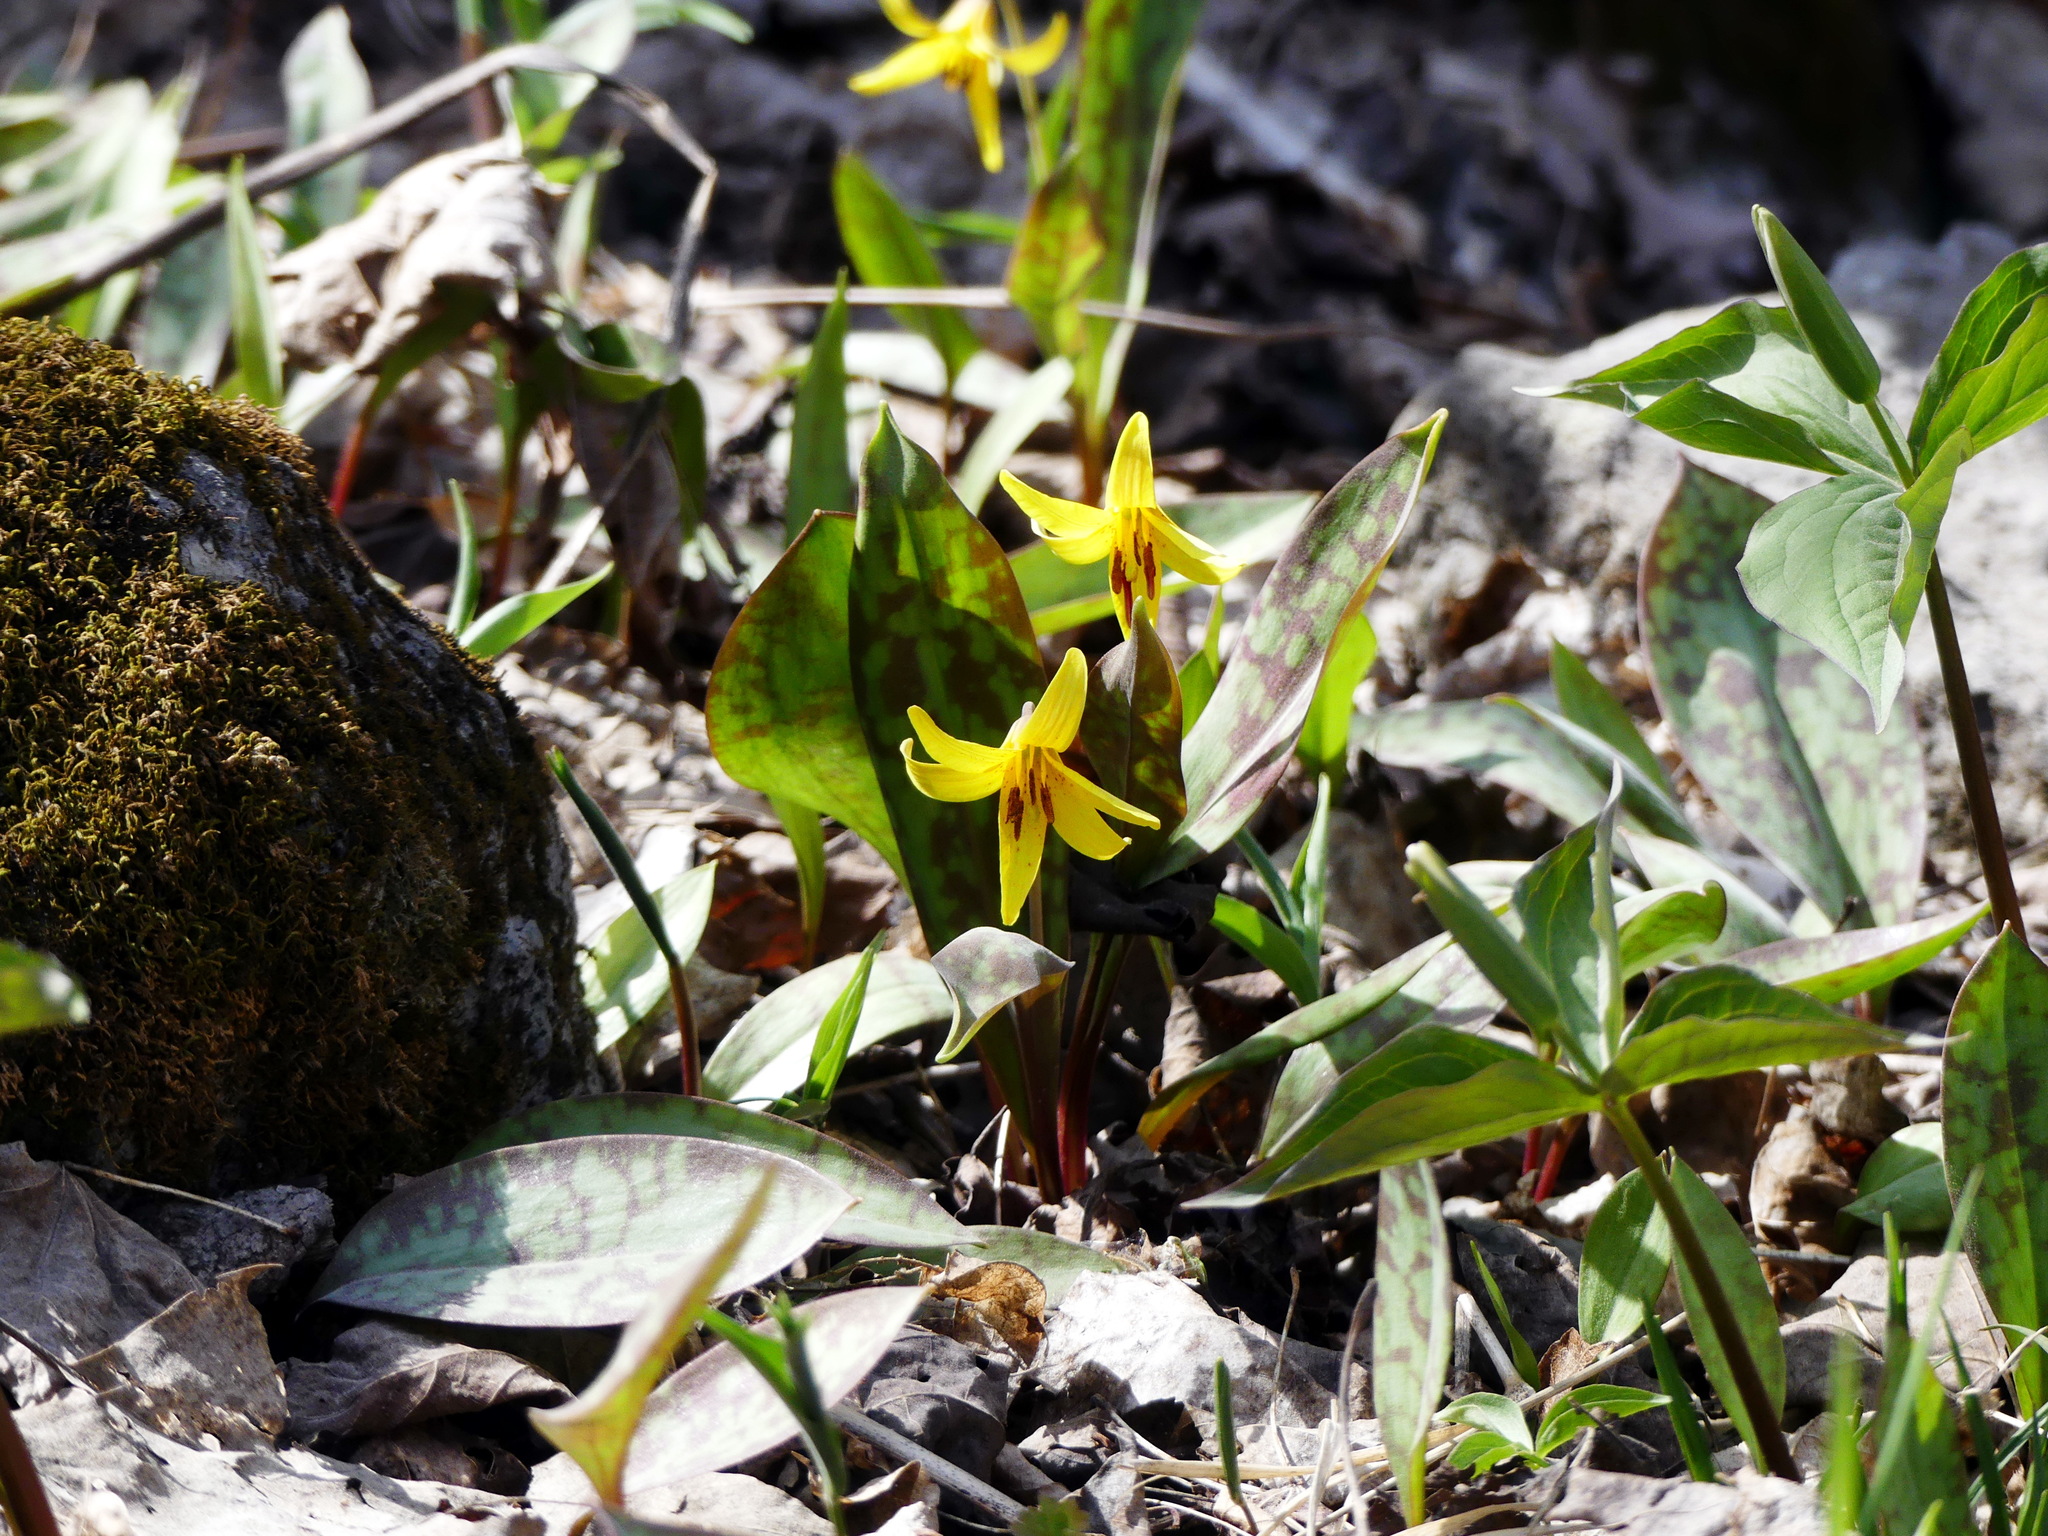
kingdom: Plantae
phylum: Tracheophyta
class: Liliopsida
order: Liliales
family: Liliaceae
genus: Erythronium
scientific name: Erythronium americanum
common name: Yellow adder's-tongue
